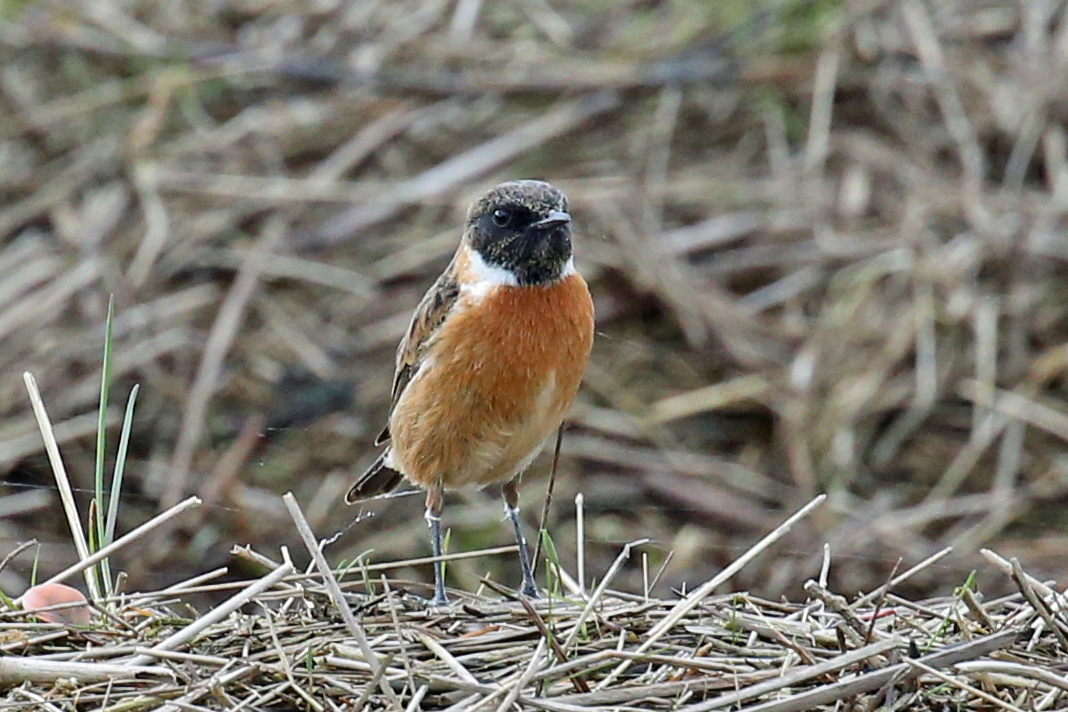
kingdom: Animalia
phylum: Chordata
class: Aves
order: Passeriformes
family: Muscicapidae
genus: Saxicola
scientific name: Saxicola rubicola
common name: European stonechat
